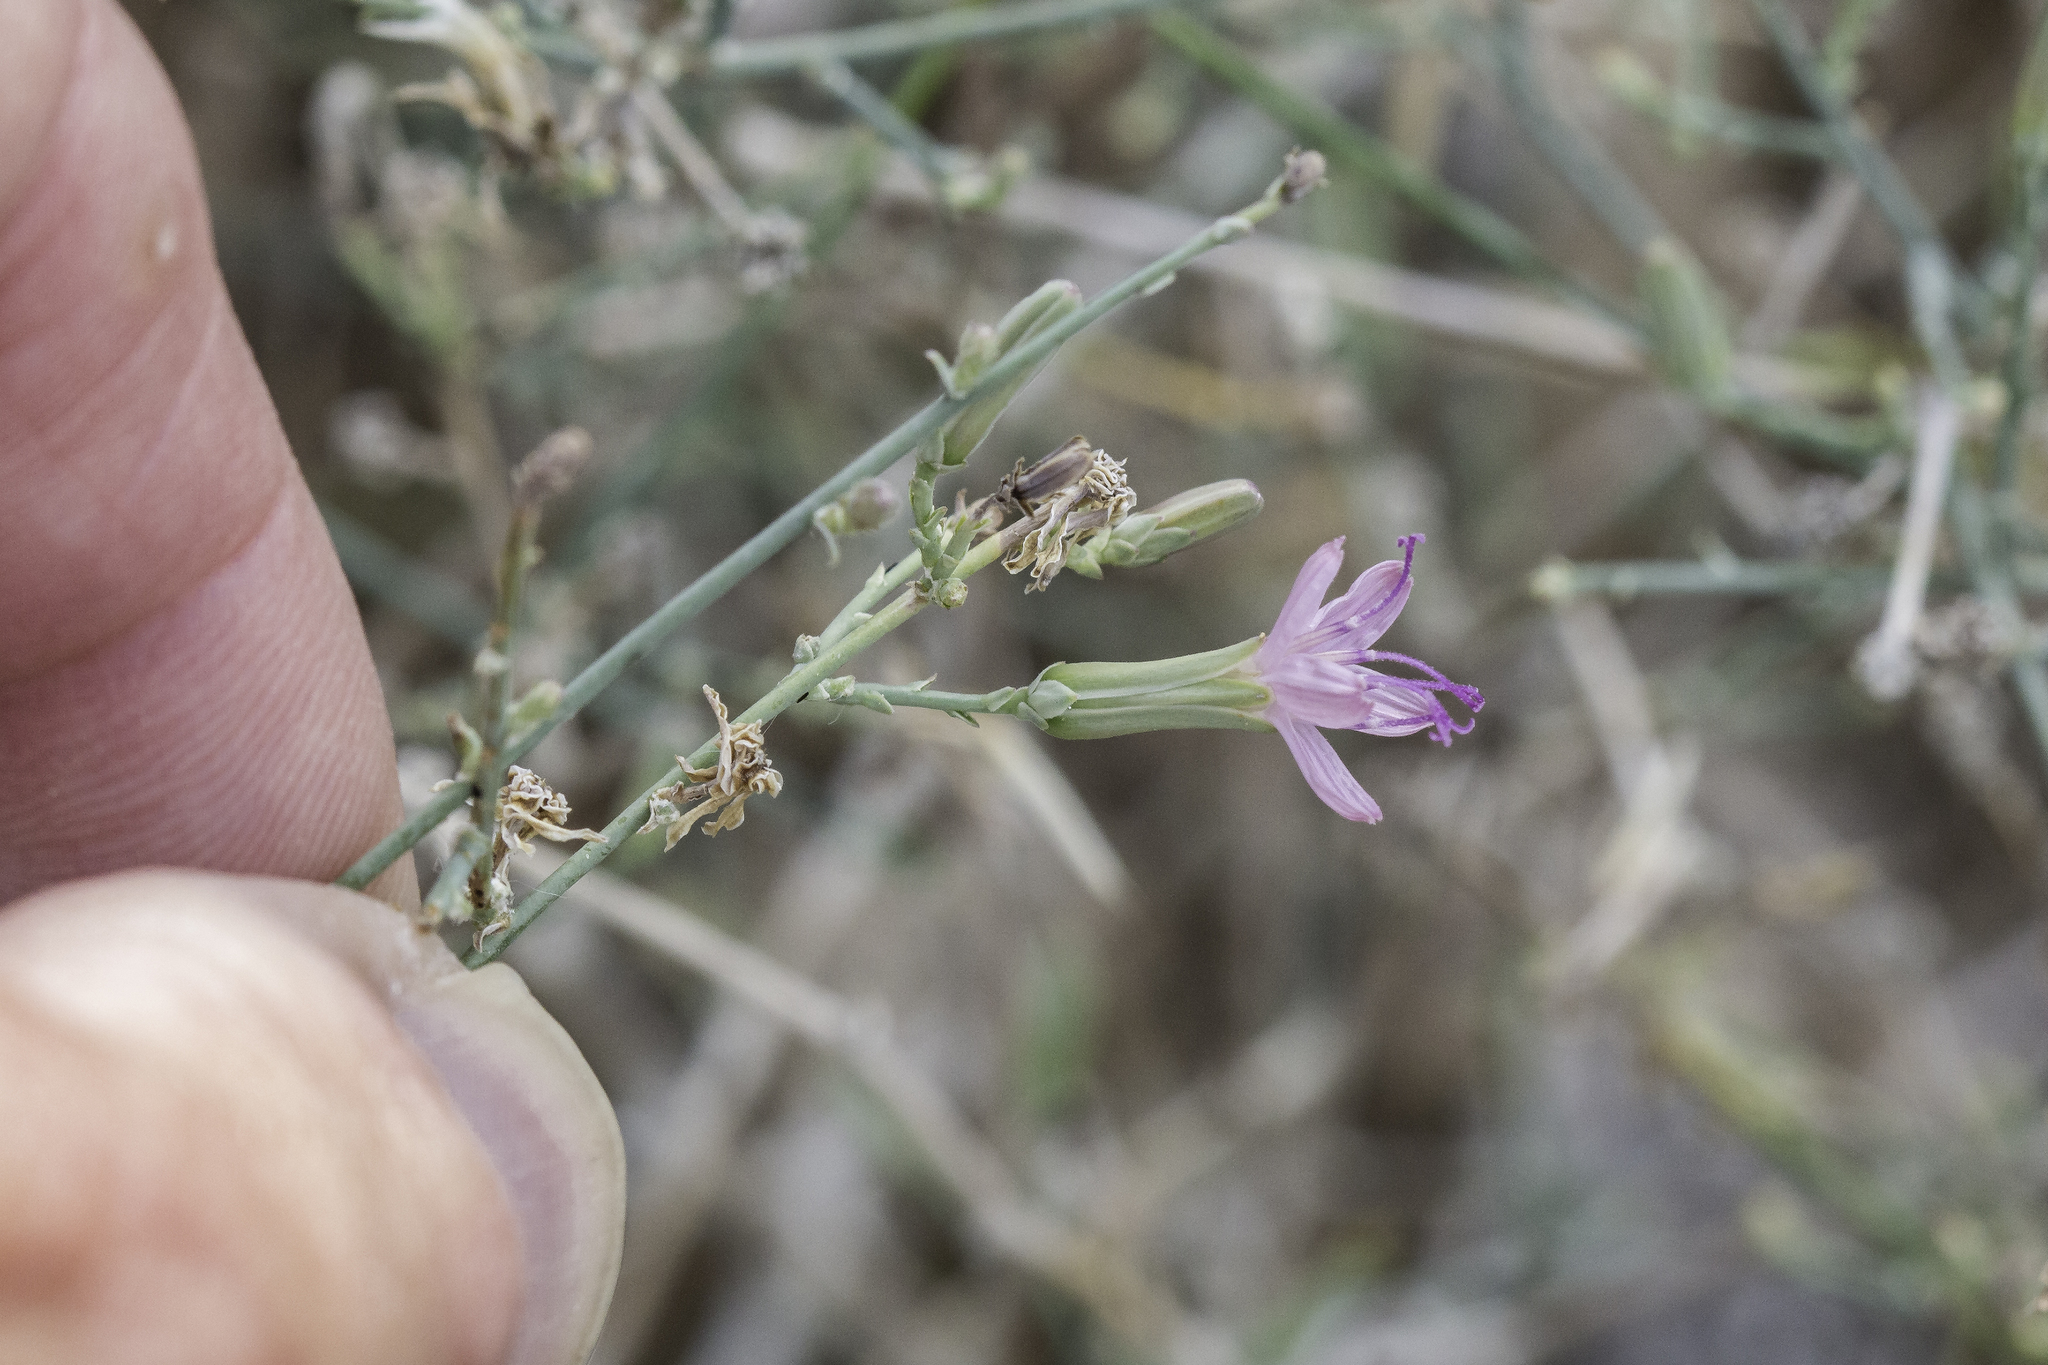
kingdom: Plantae
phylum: Tracheophyta
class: Magnoliopsida
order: Asterales
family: Asteraceae
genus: Stephanomeria
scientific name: Stephanomeria pauciflora
